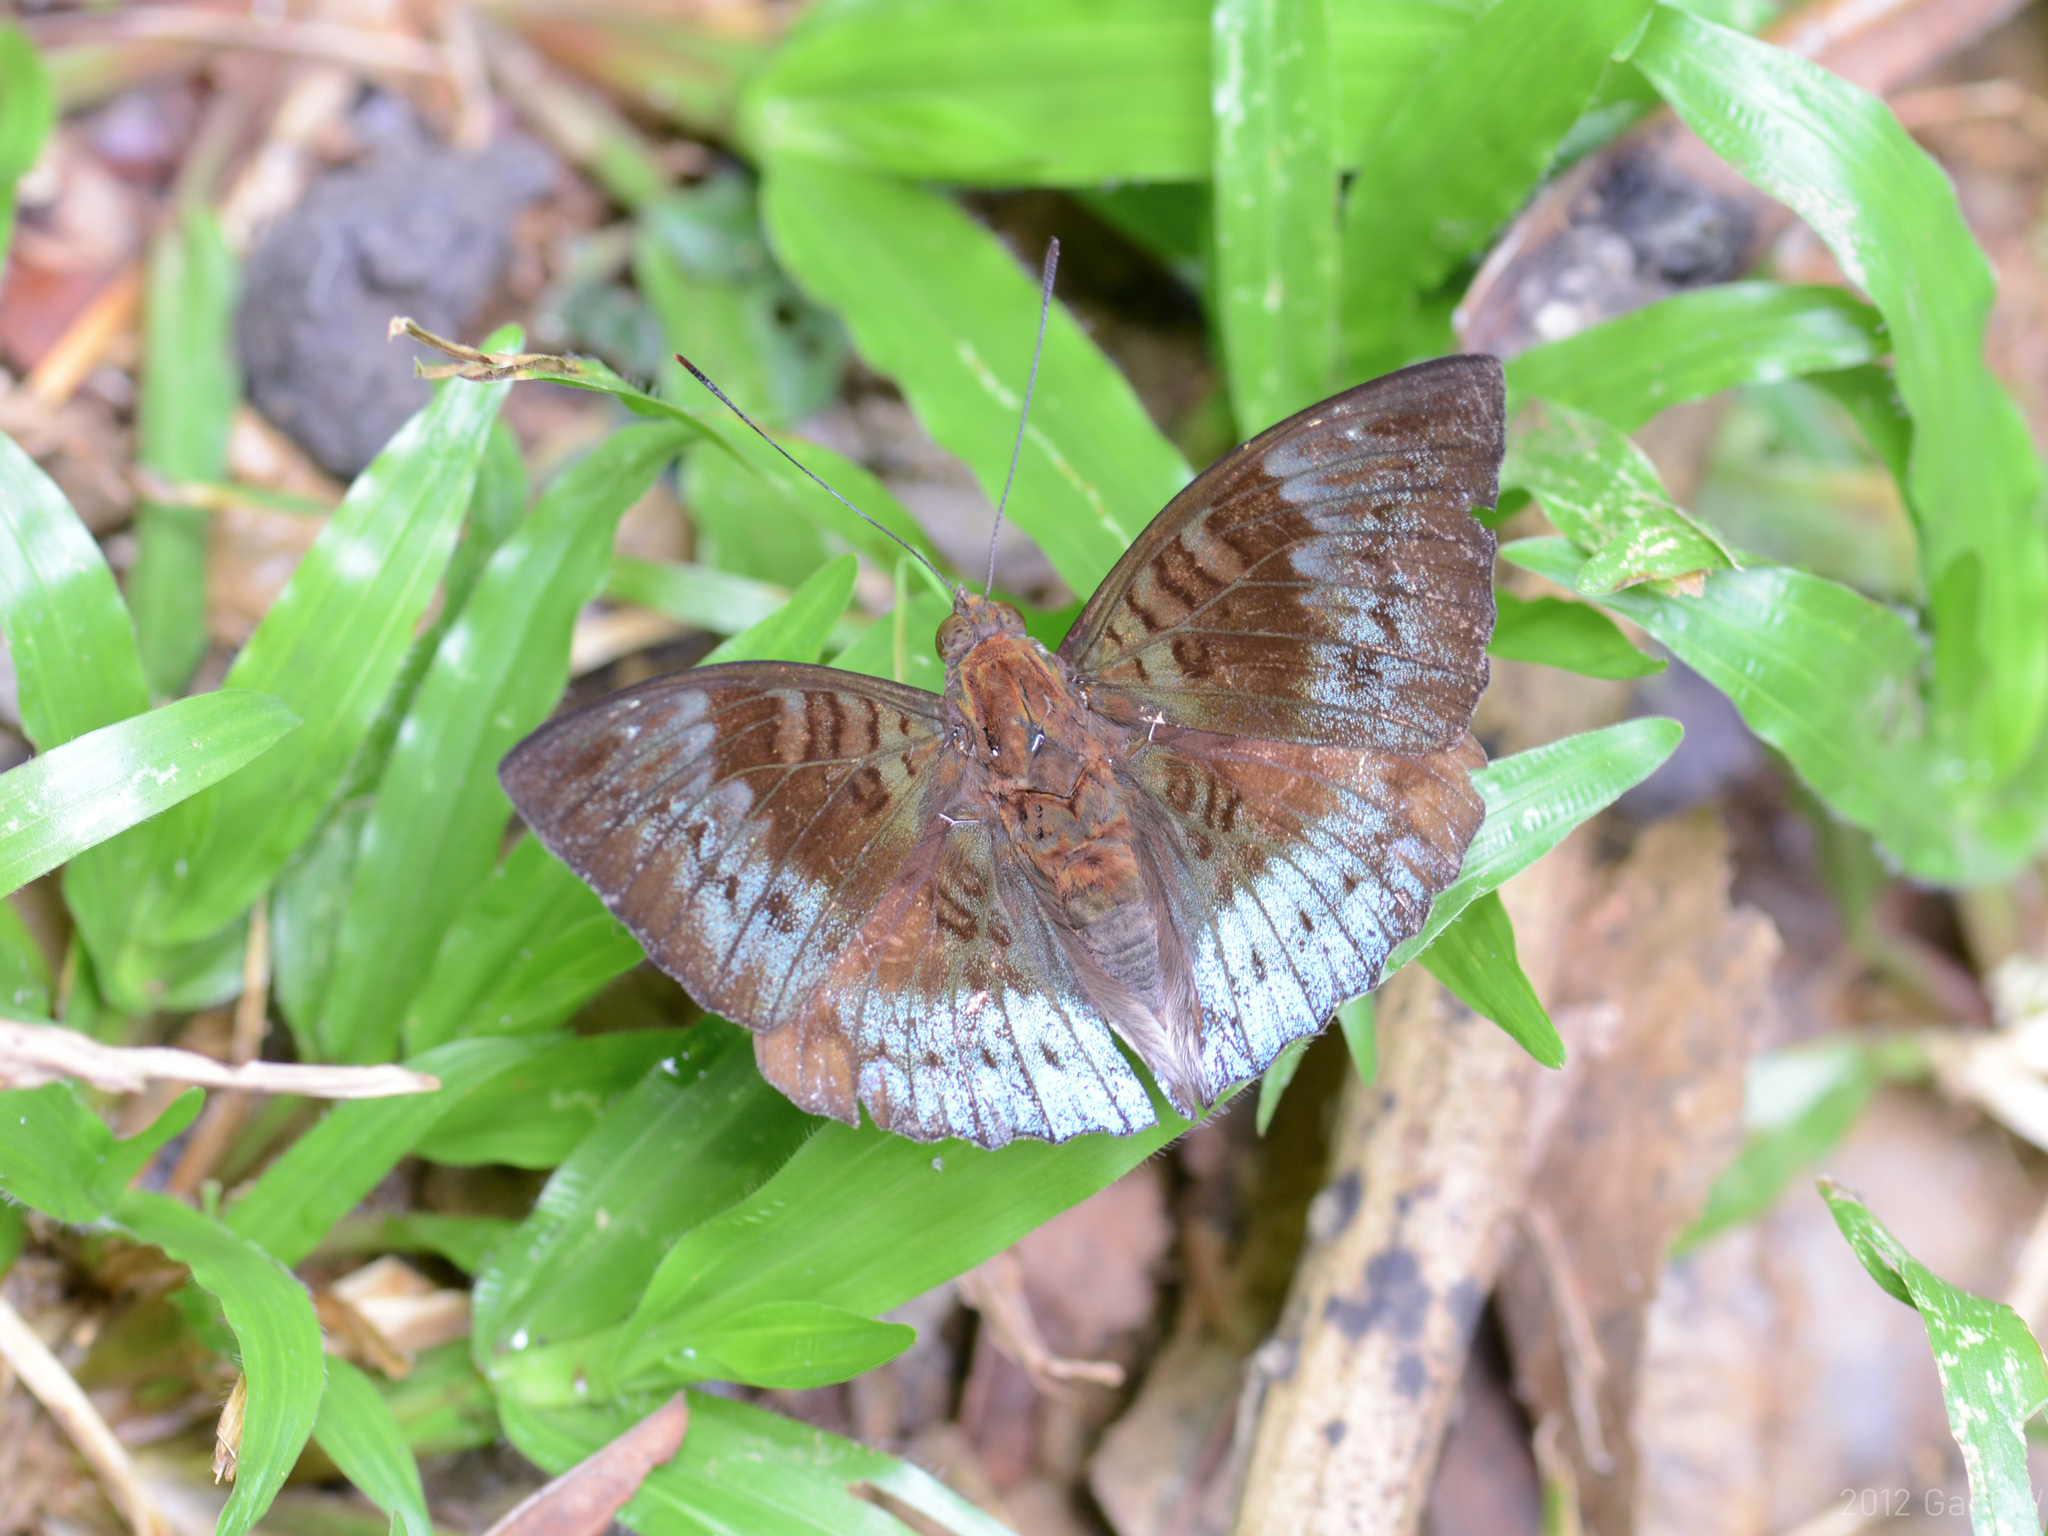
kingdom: Animalia
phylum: Arthropoda
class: Insecta
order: Lepidoptera
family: Nymphalidae
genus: Euthalia
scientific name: Euthalia monina
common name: Powdered baron
